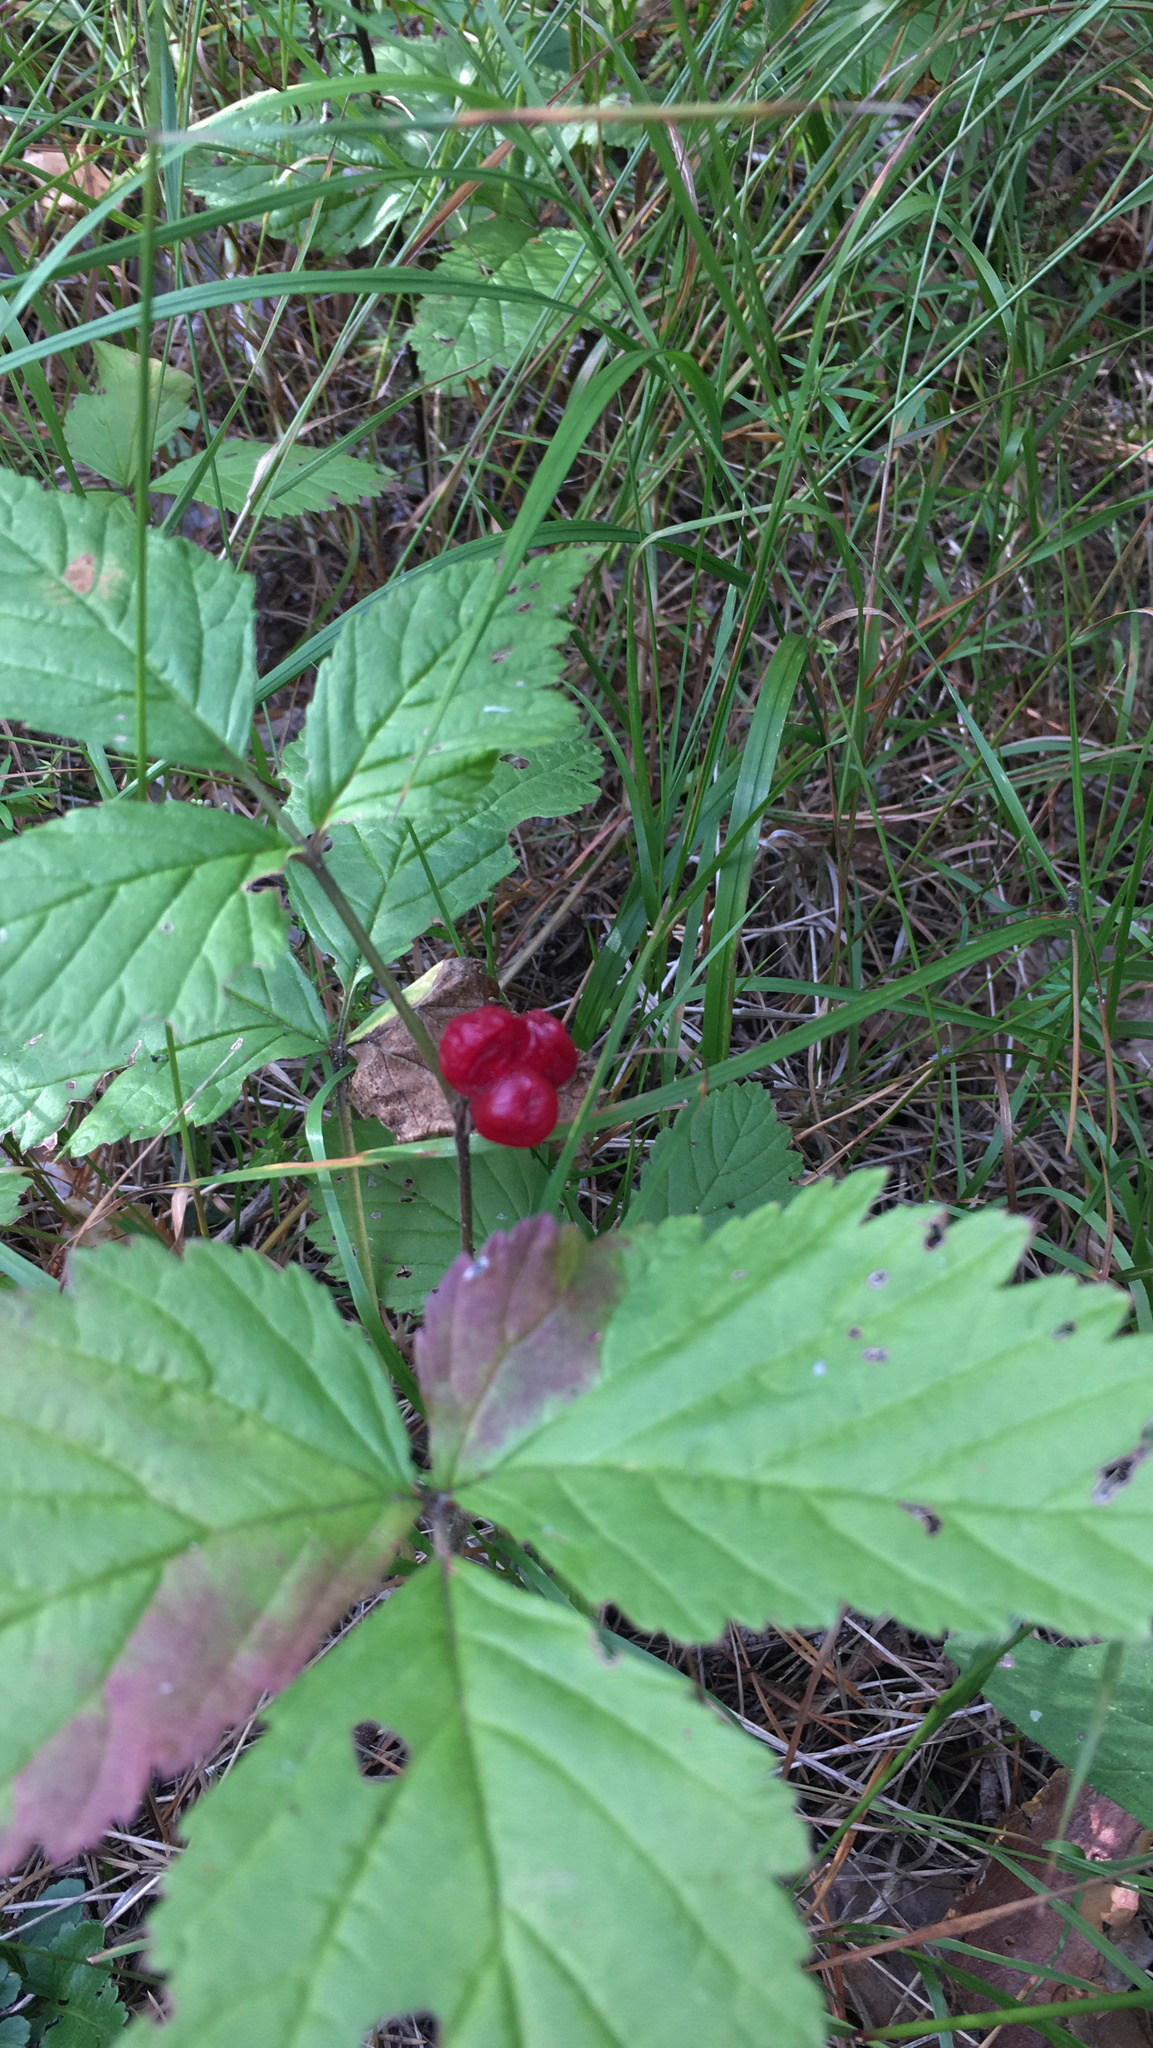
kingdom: Plantae
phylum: Tracheophyta
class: Magnoliopsida
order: Rosales
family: Rosaceae
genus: Rubus
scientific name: Rubus saxatilis
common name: Stone bramble
